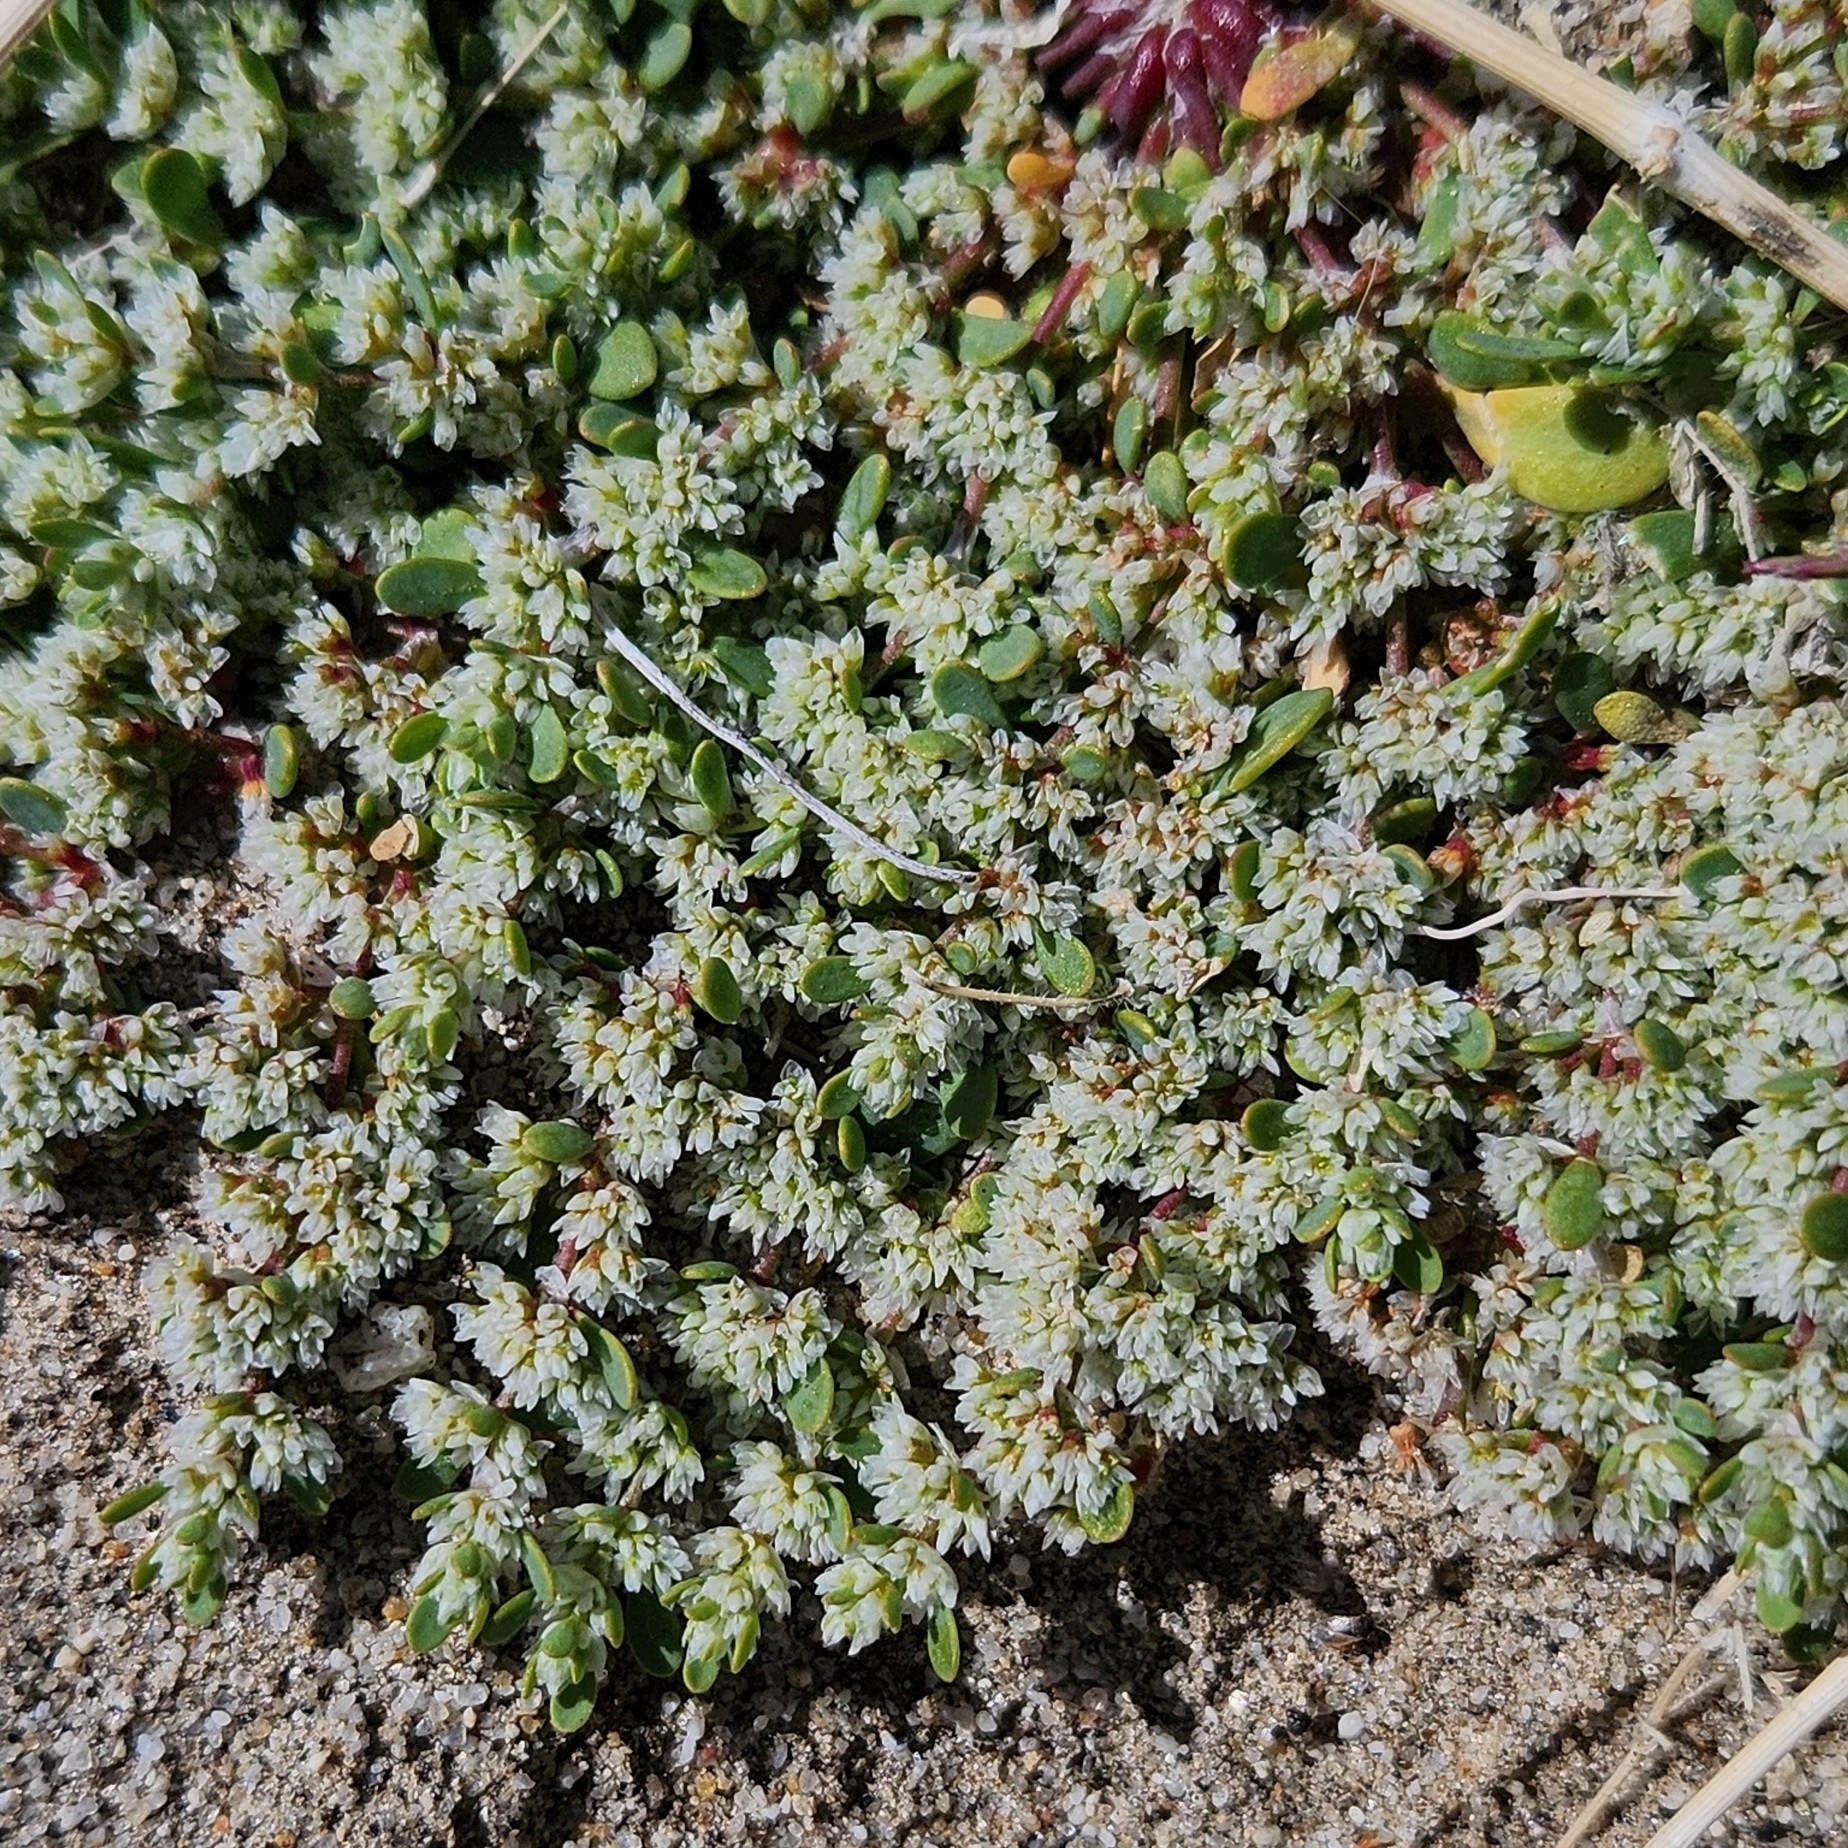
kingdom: Plantae
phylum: Tracheophyta
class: Magnoliopsida
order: Caryophyllales
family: Caryophyllaceae
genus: Achyronychia
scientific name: Achyronychia cooperi
